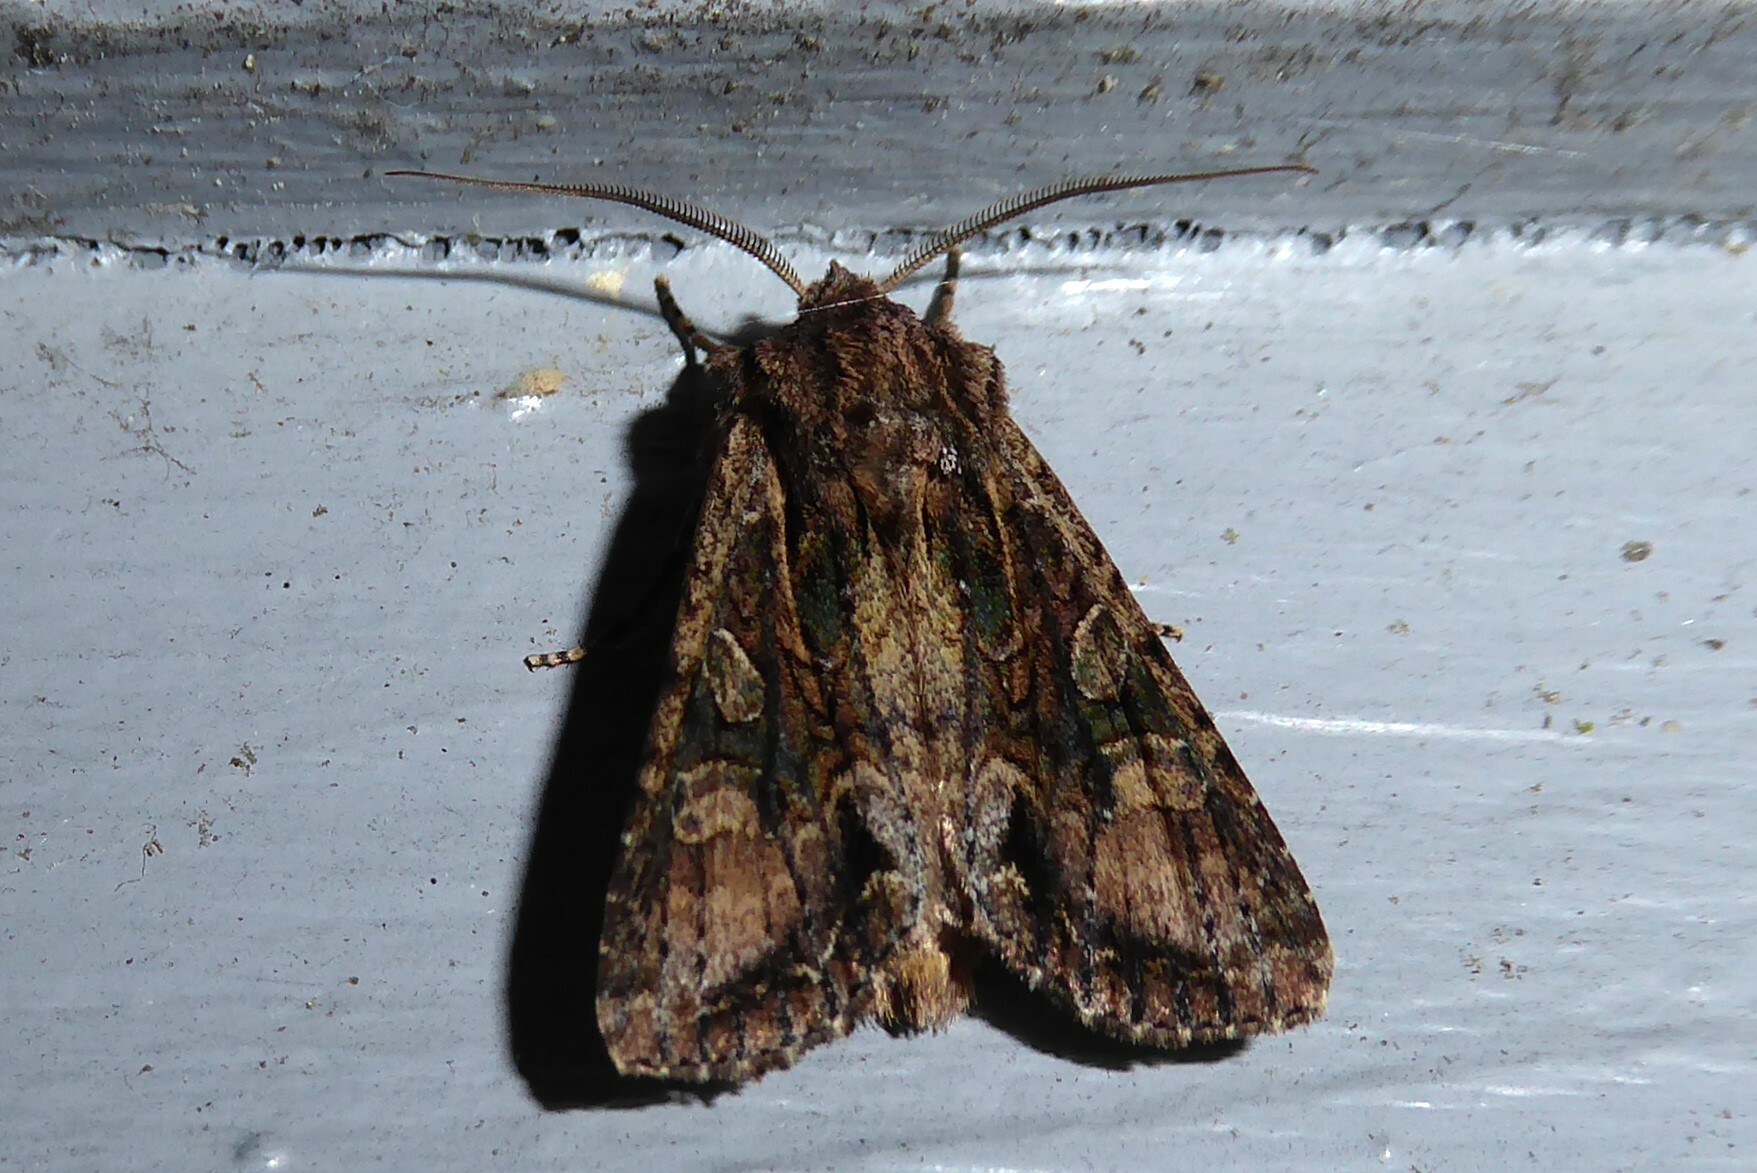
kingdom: Animalia
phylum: Arthropoda
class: Insecta
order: Lepidoptera
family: Noctuidae
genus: Ichneutica
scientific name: Ichneutica mutans
